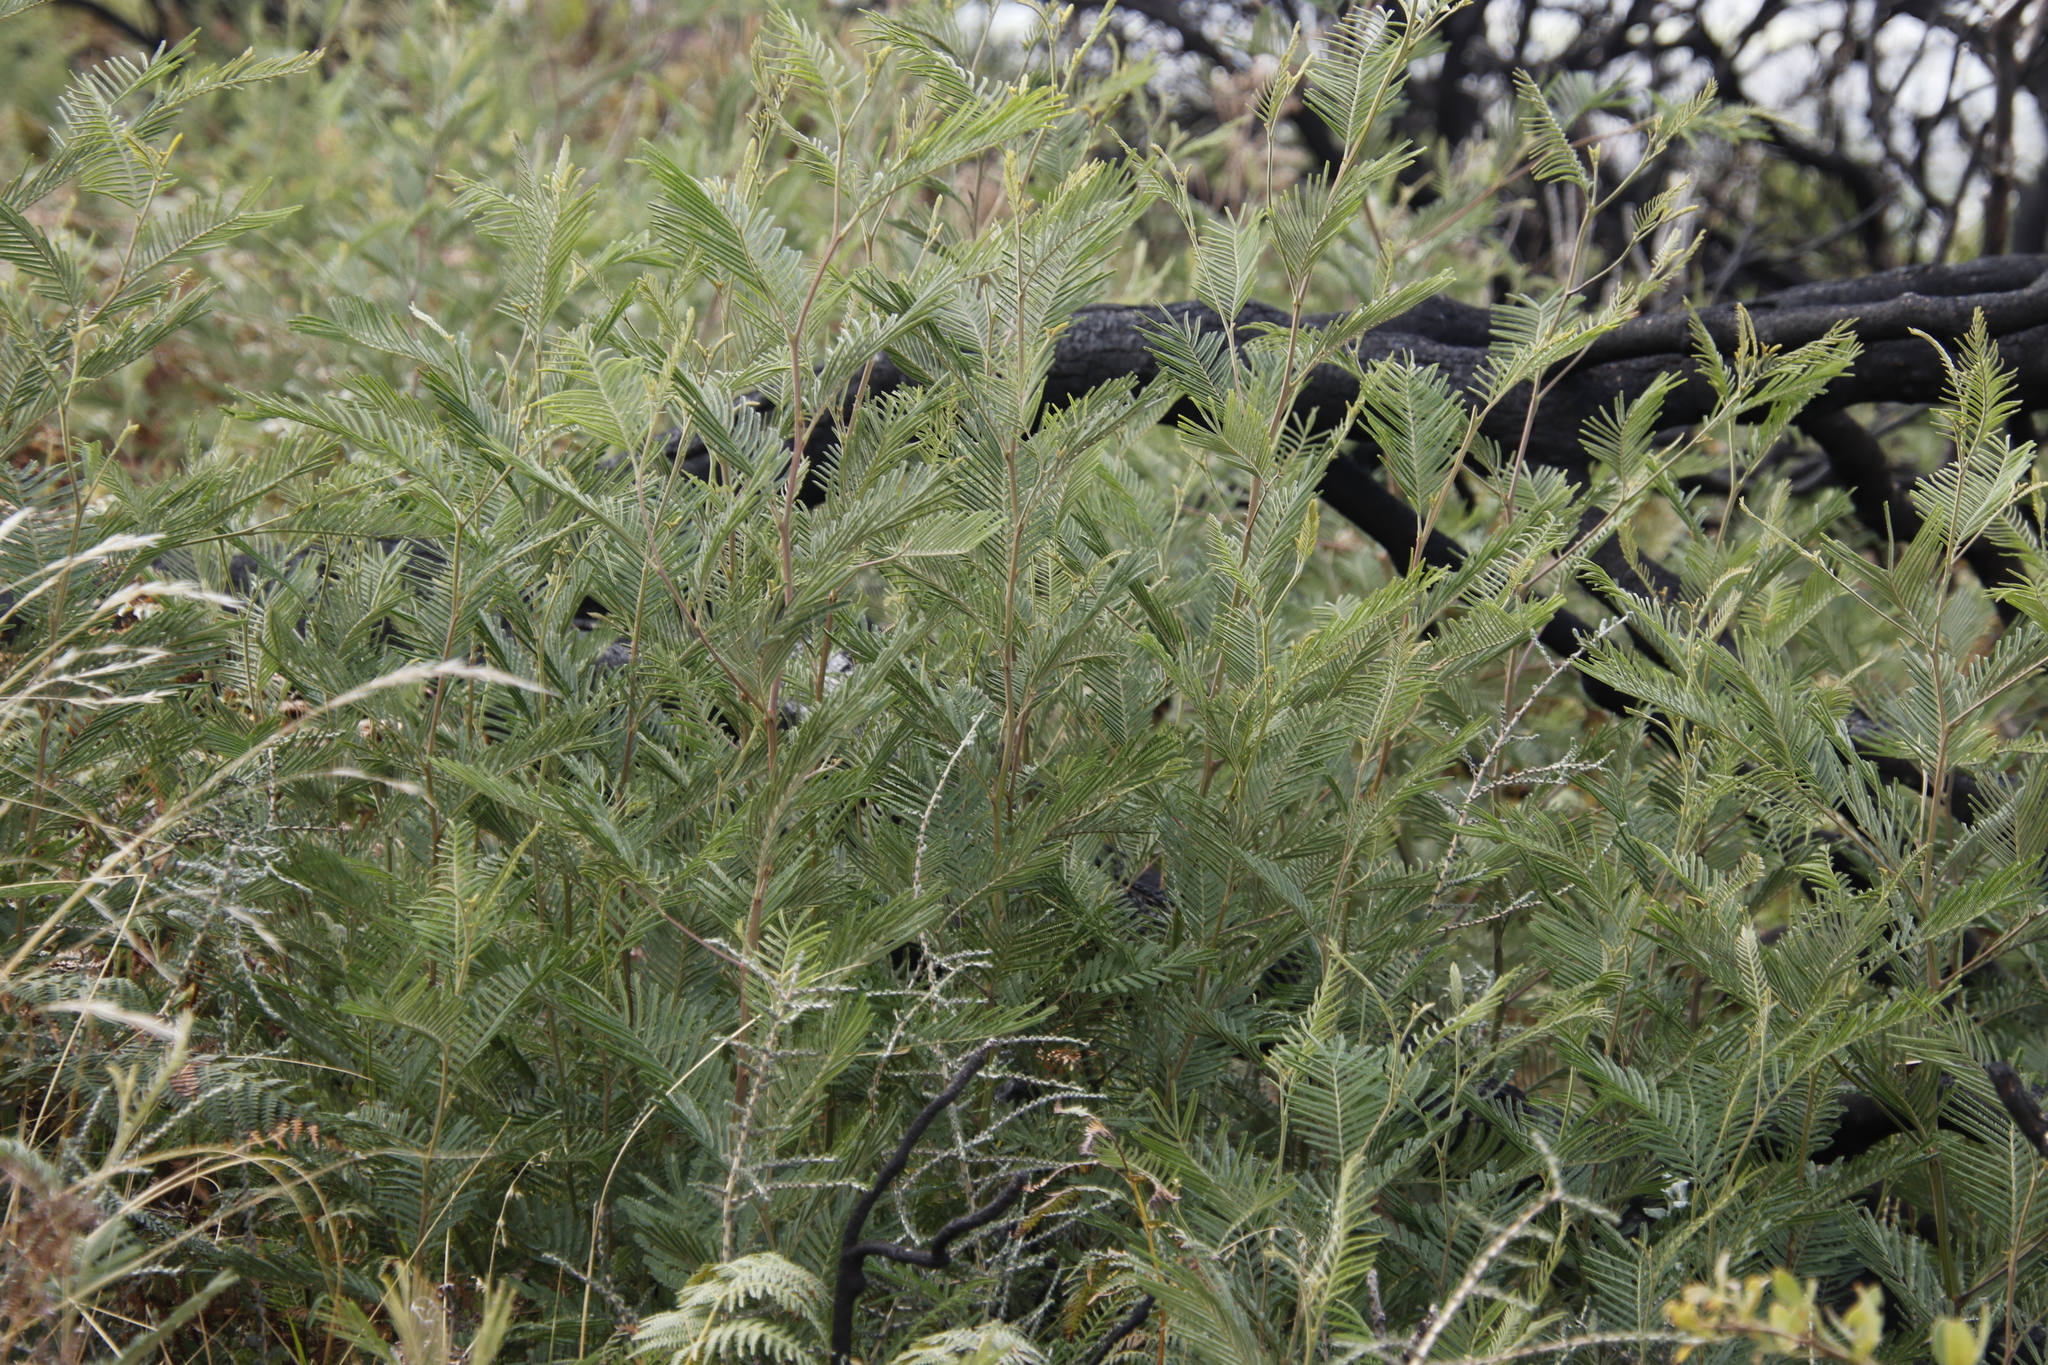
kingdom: Plantae
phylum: Tracheophyta
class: Magnoliopsida
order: Fabales
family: Fabaceae
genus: Acacia
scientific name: Acacia mearnsii
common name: Black wattle
